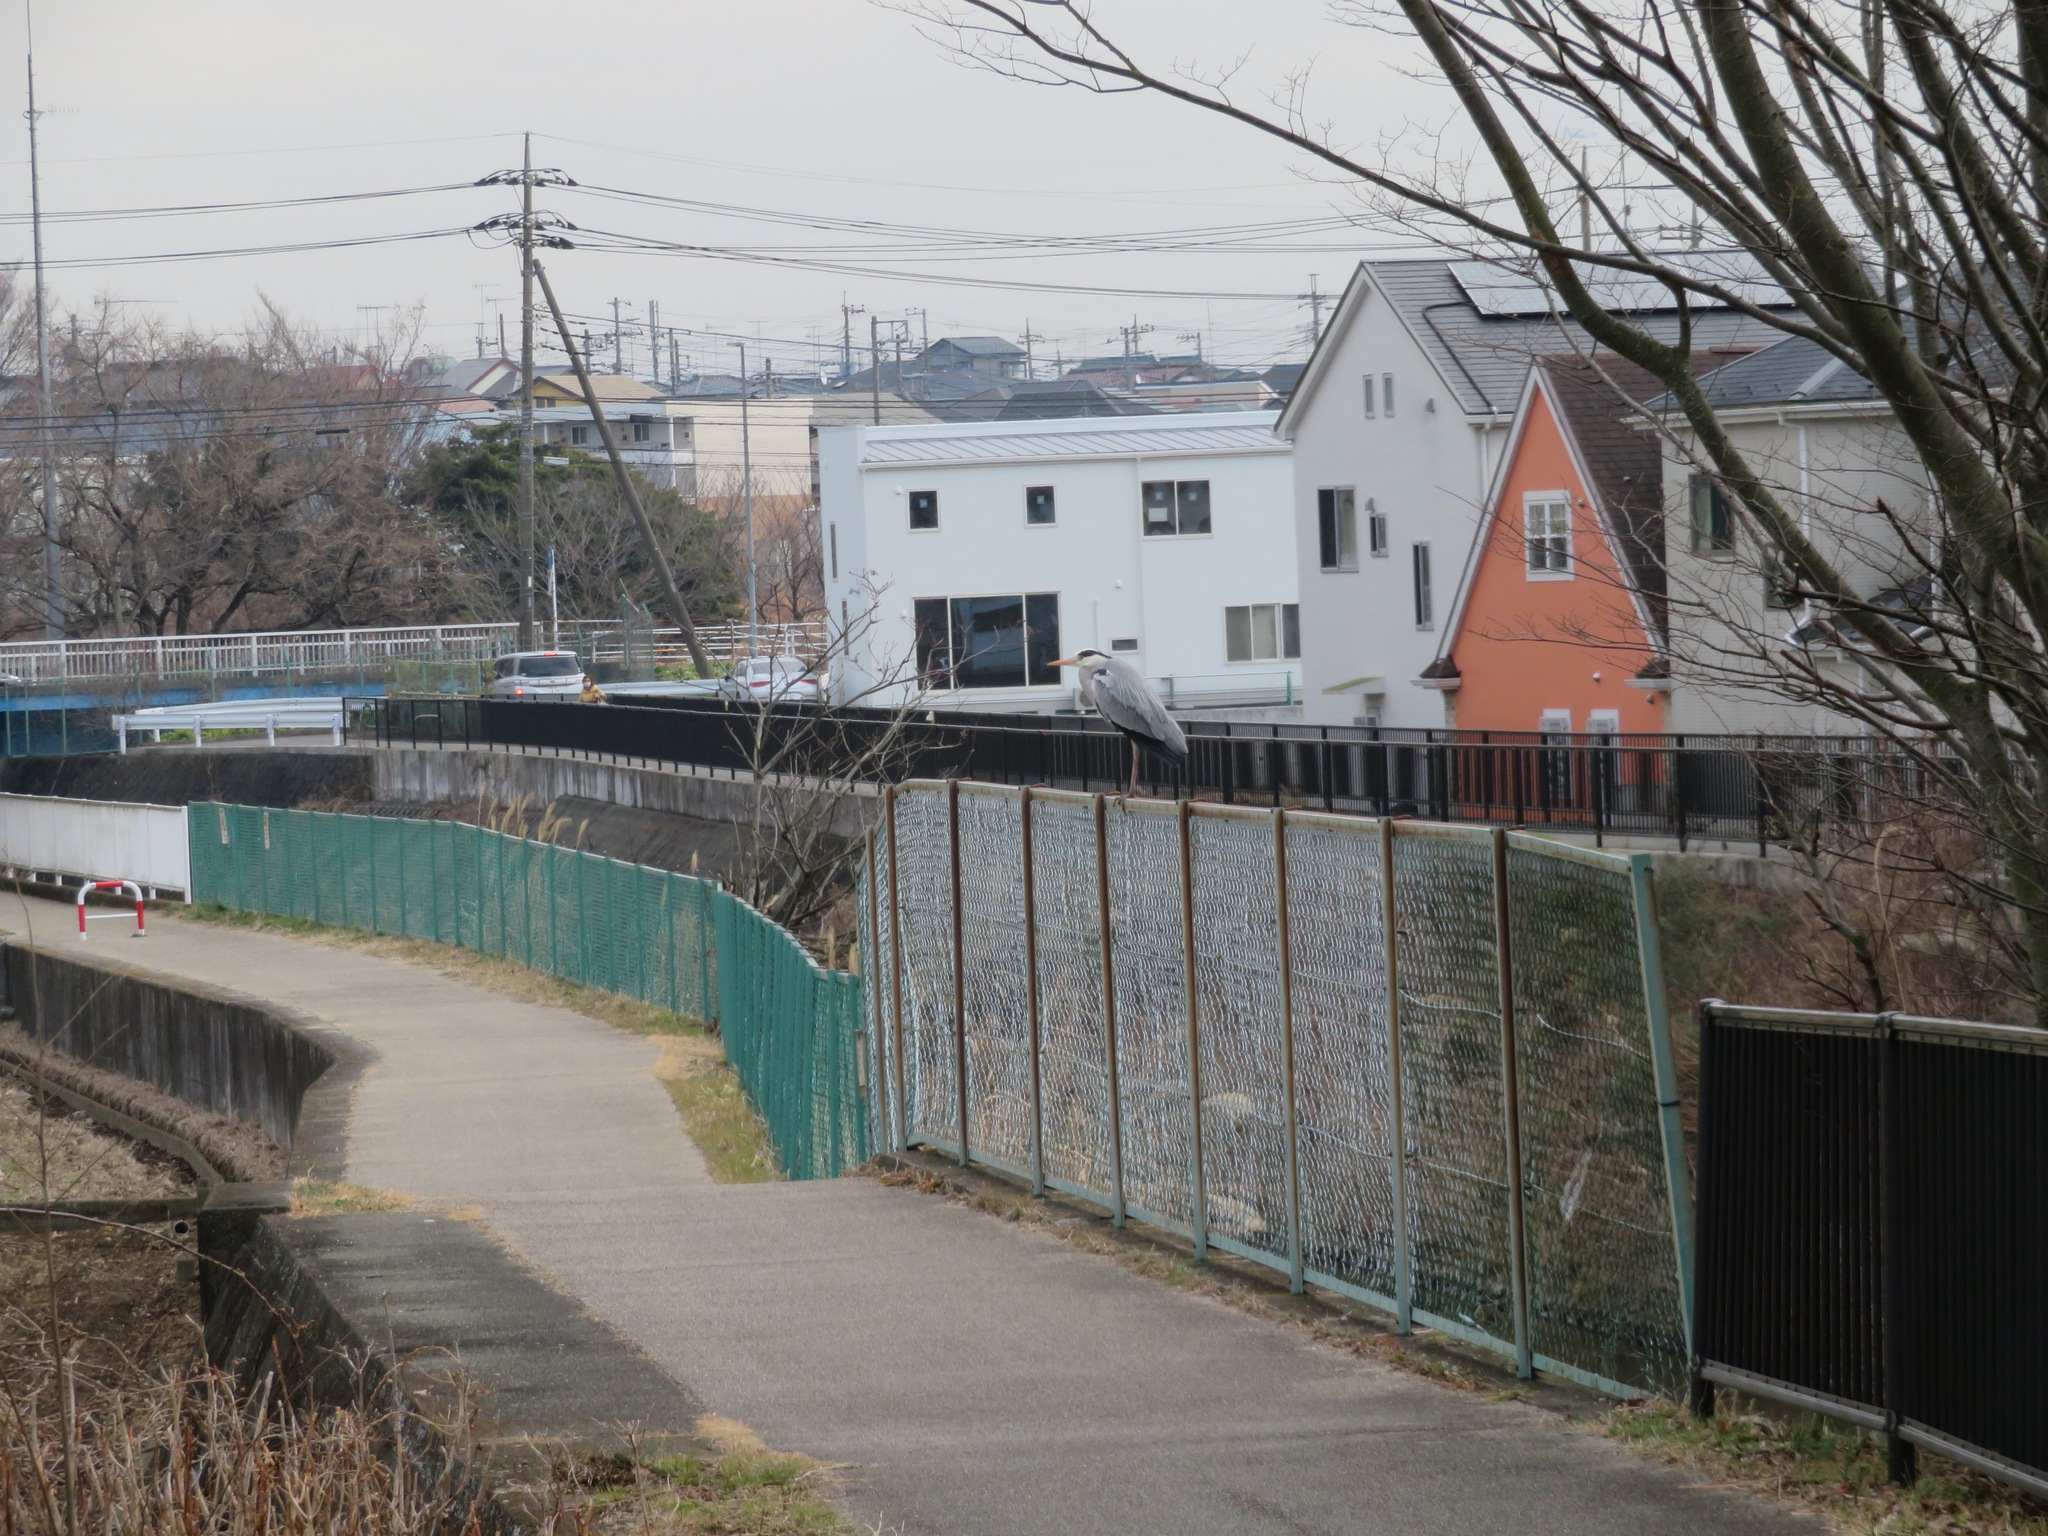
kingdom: Animalia
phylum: Chordata
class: Aves
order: Pelecaniformes
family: Ardeidae
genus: Ardea
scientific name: Ardea cinerea
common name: Grey heron
